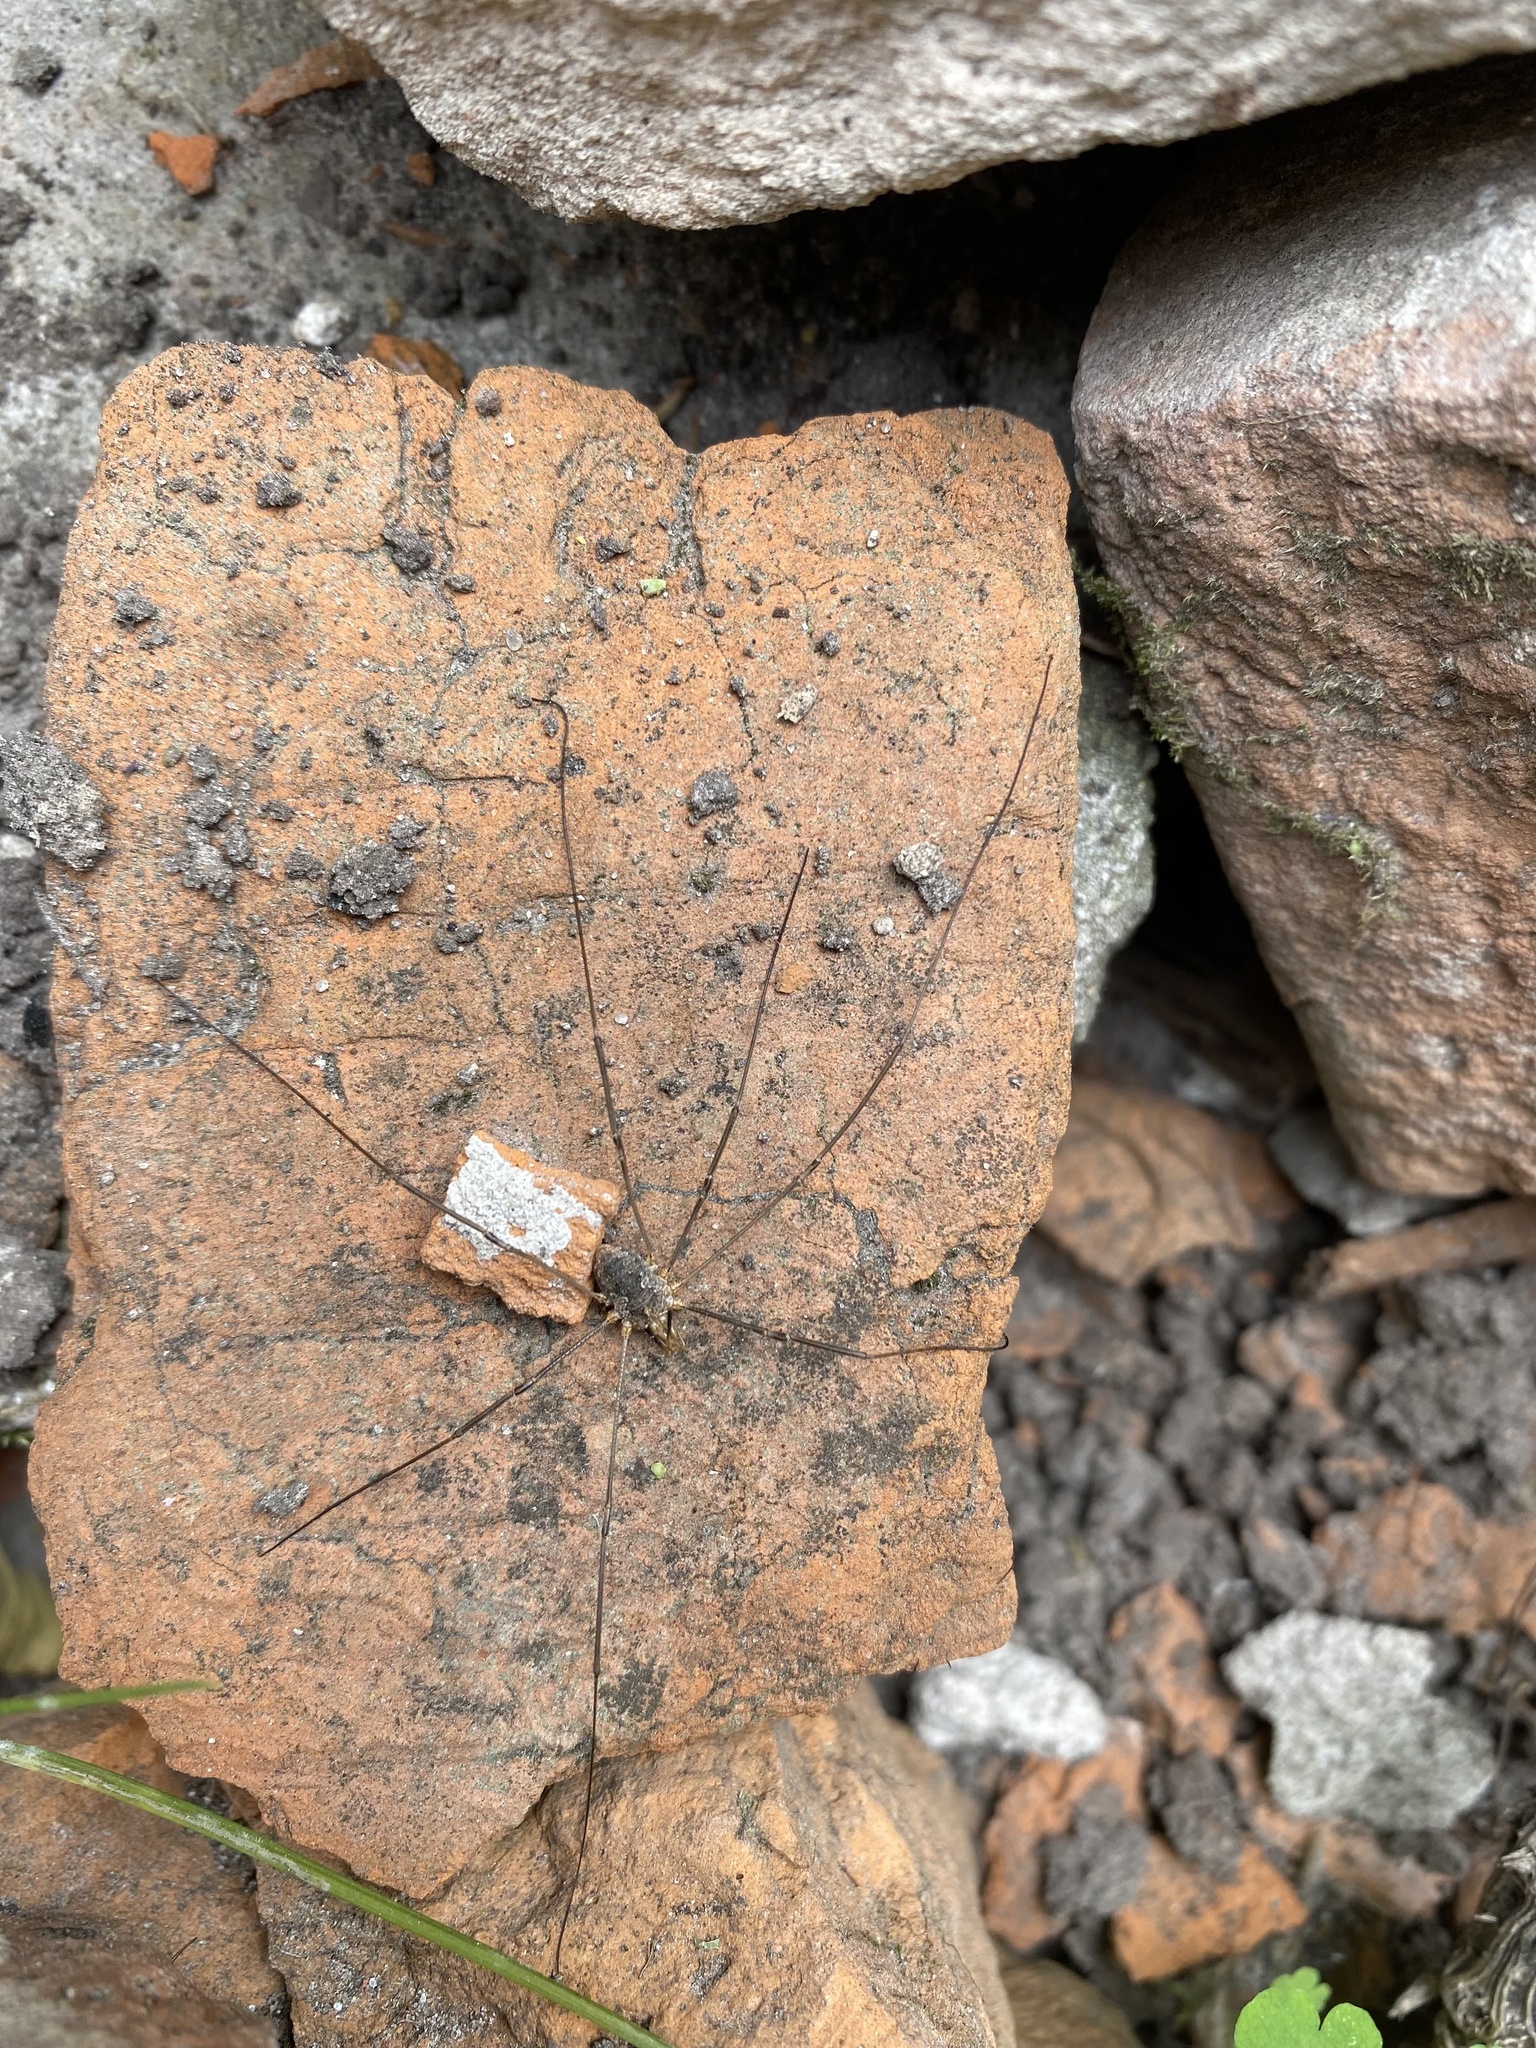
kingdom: Animalia
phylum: Arthropoda
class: Arachnida
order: Opiliones
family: Phalangiidae
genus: Phalangium
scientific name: Phalangium opilio
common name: Daddy longleg
